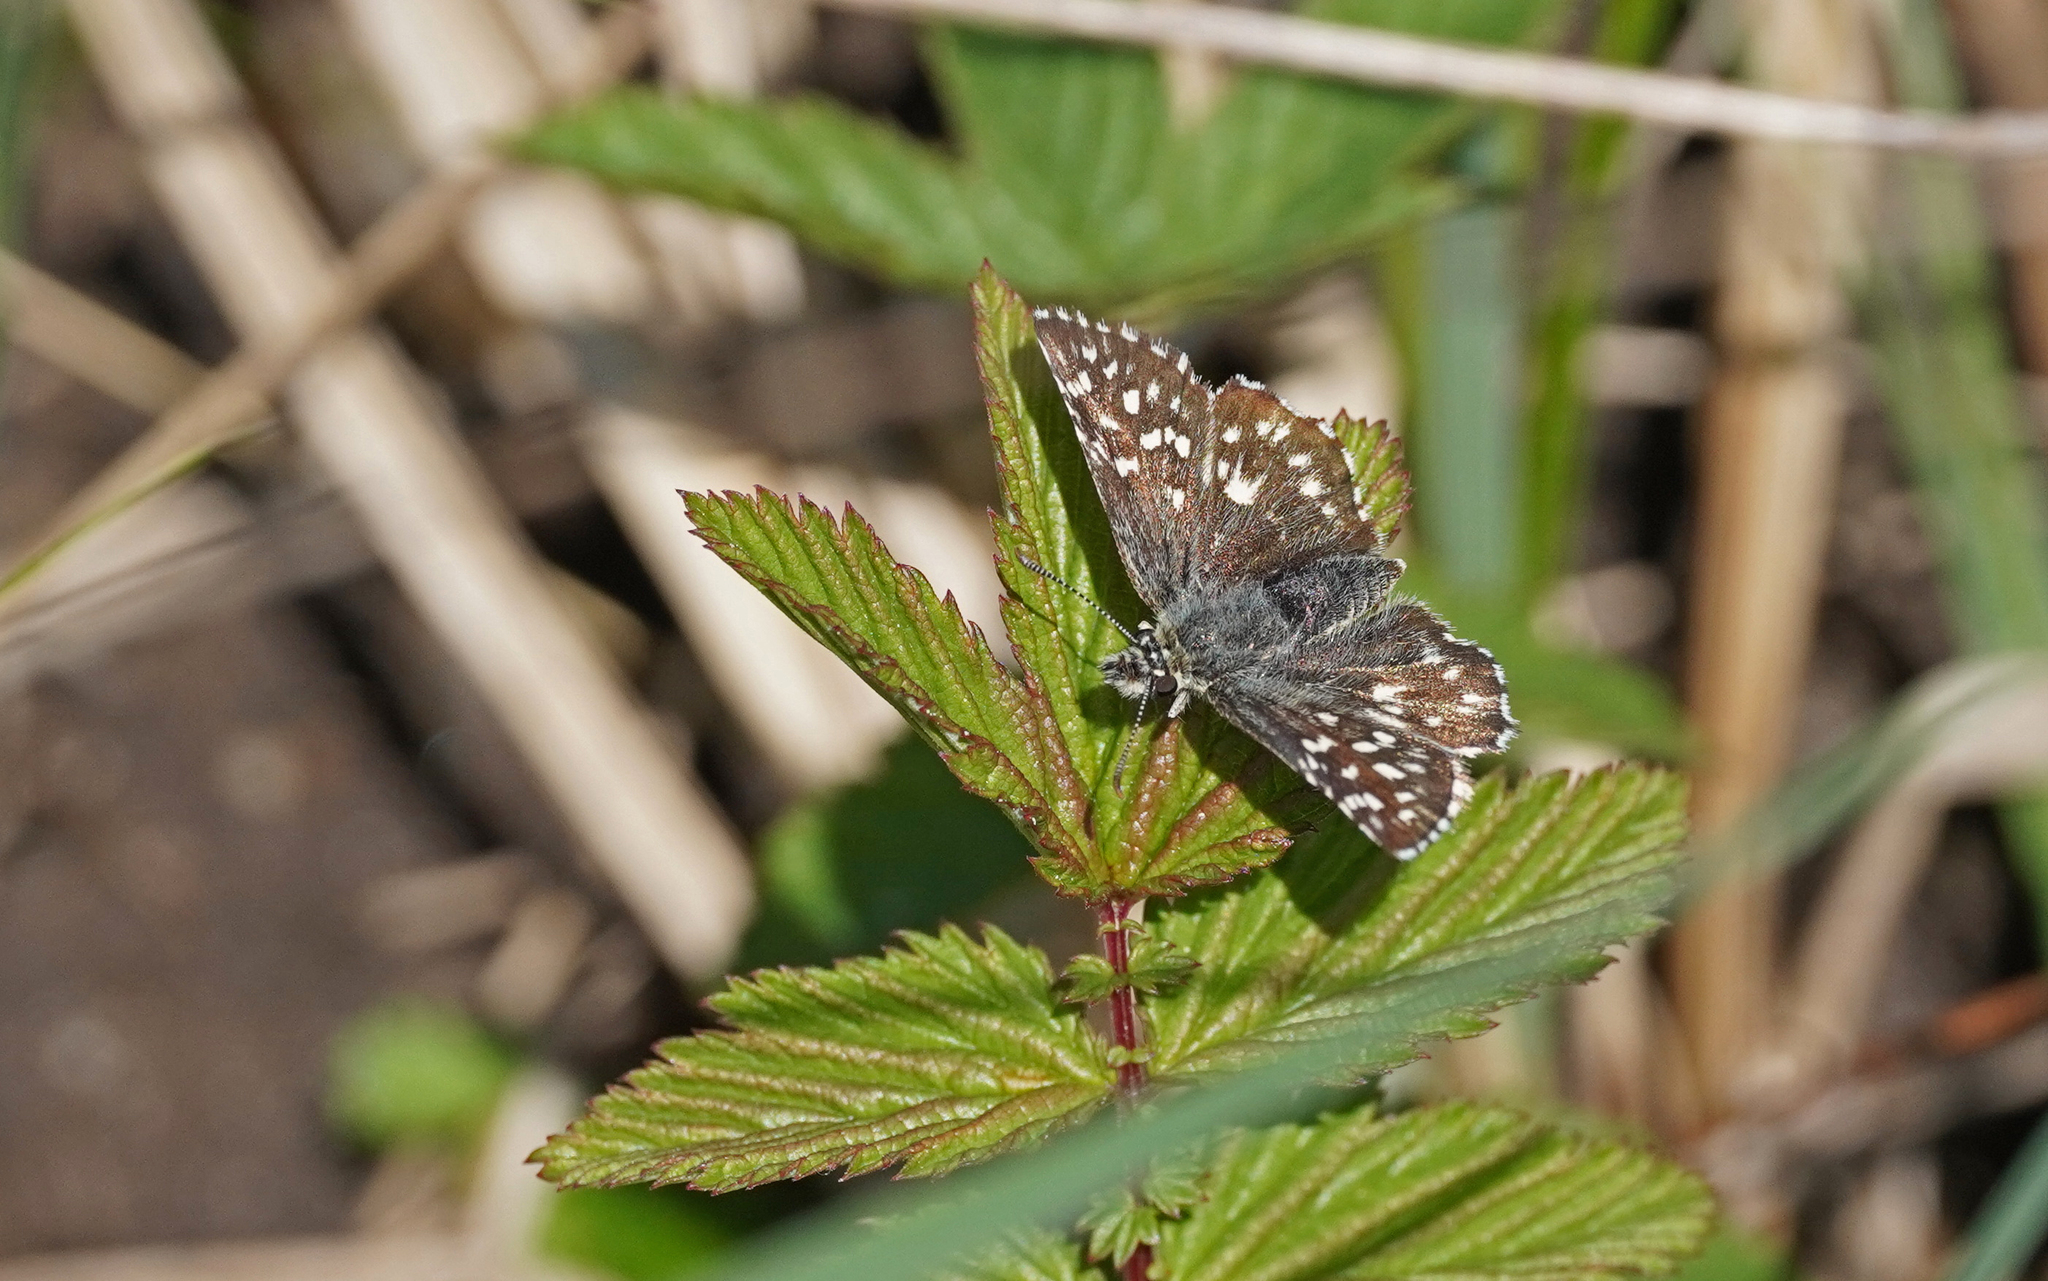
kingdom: Animalia
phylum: Arthropoda
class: Insecta
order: Lepidoptera
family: Hesperiidae
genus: Pyrgus
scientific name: Pyrgus malvae
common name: Grizzled skipper
